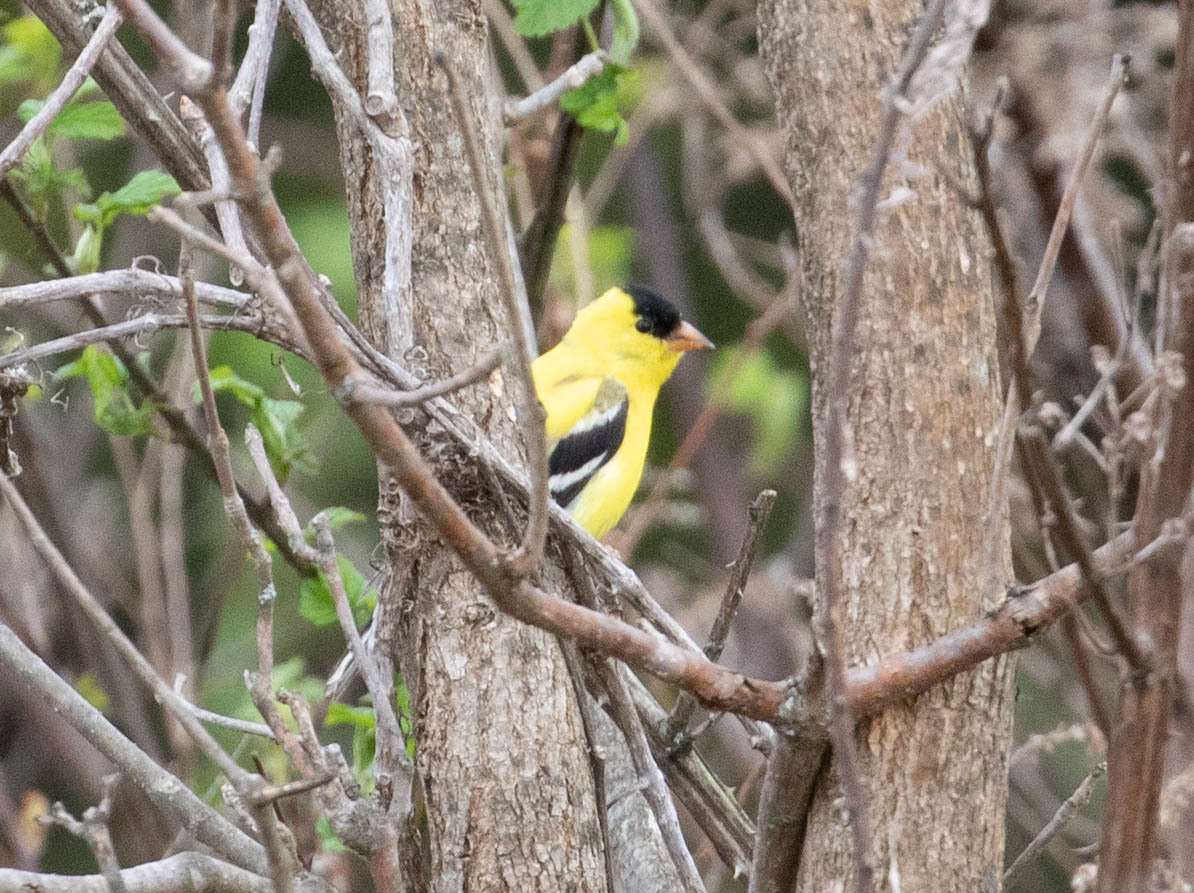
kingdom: Animalia
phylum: Chordata
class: Aves
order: Passeriformes
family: Fringillidae
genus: Spinus
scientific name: Spinus tristis
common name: American goldfinch
